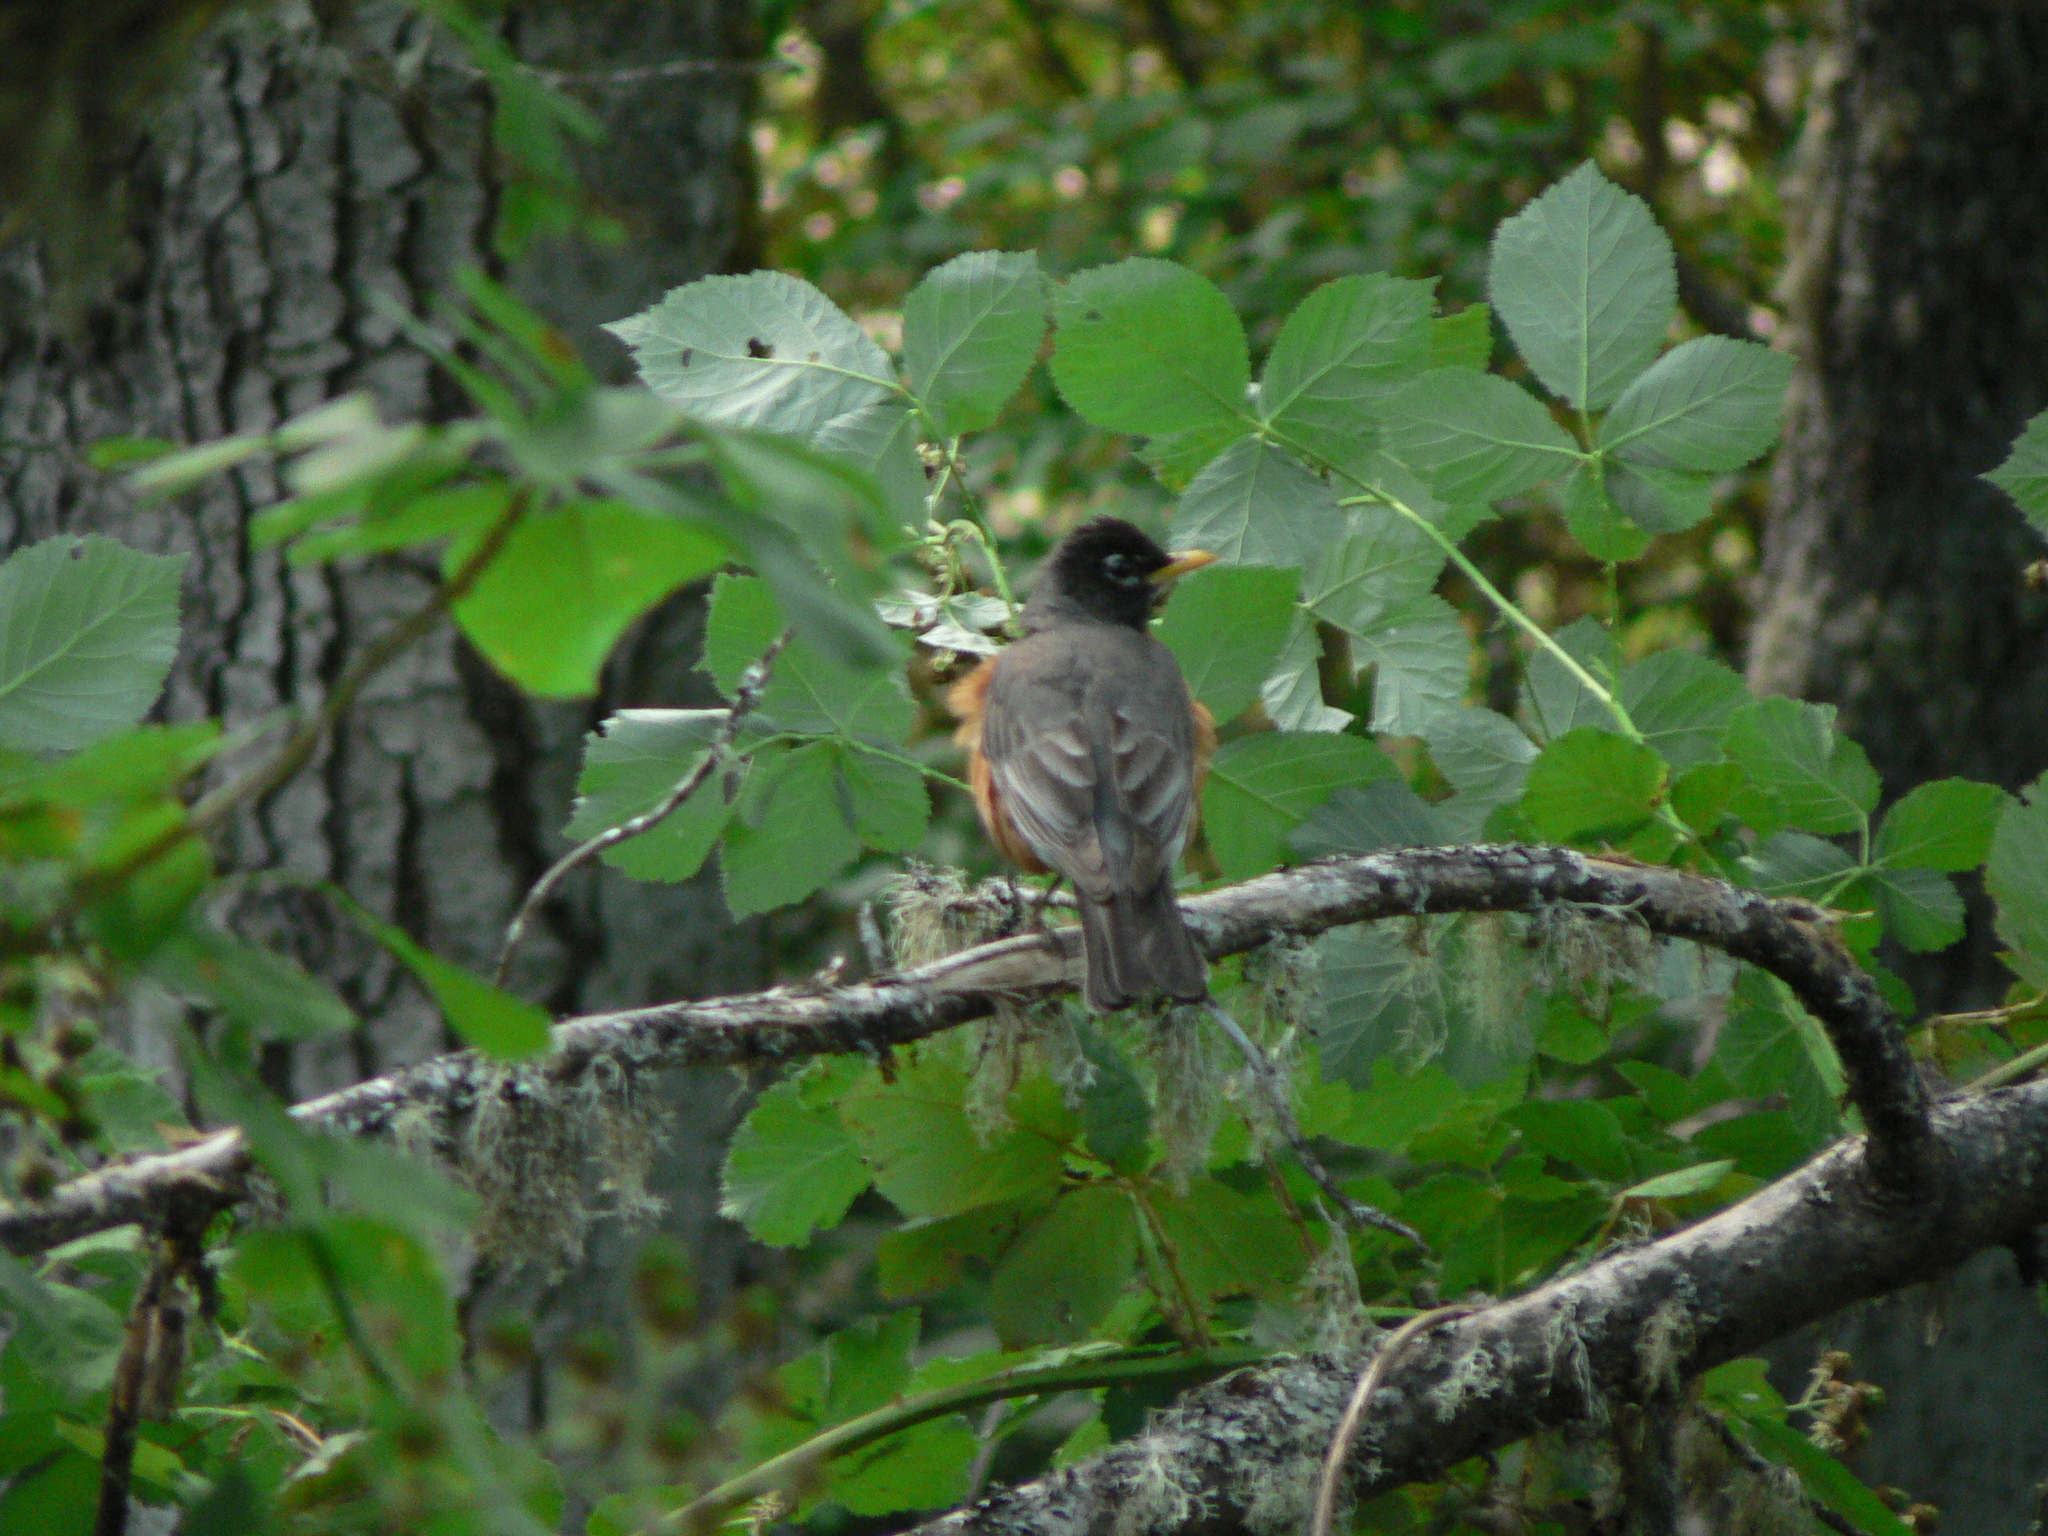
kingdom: Animalia
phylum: Chordata
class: Aves
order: Passeriformes
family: Turdidae
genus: Turdus
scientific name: Turdus migratorius
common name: American robin
